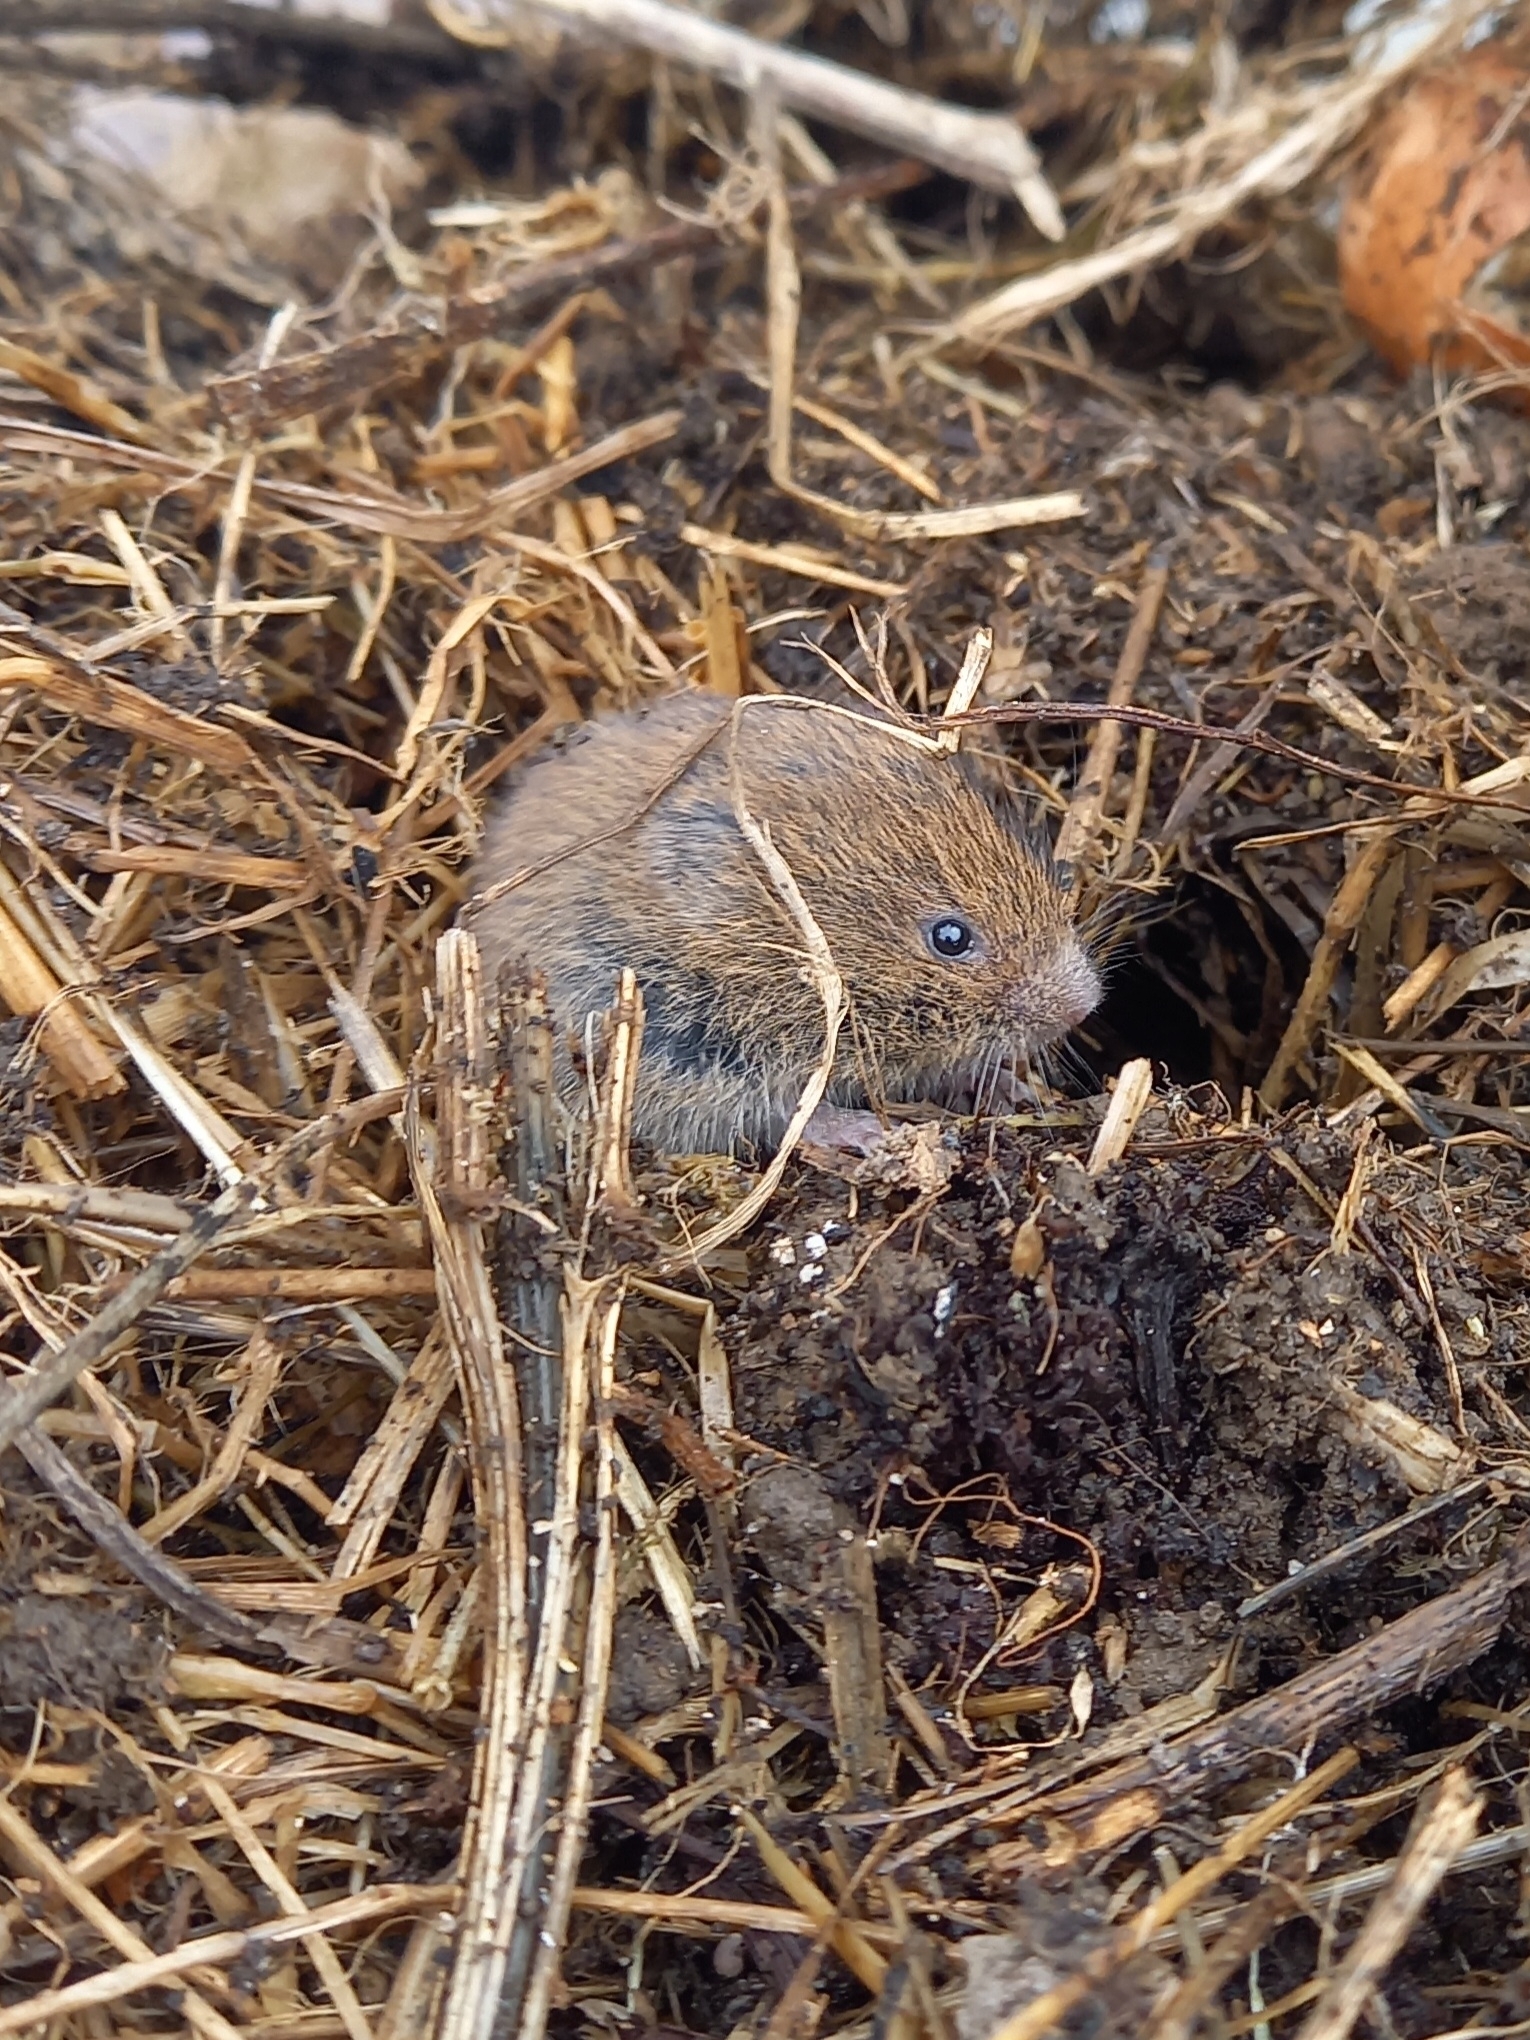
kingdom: Animalia
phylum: Chordata
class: Mammalia
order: Rodentia
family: Cricetidae
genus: Microtus
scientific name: Microtus agrestis
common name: Field vole
